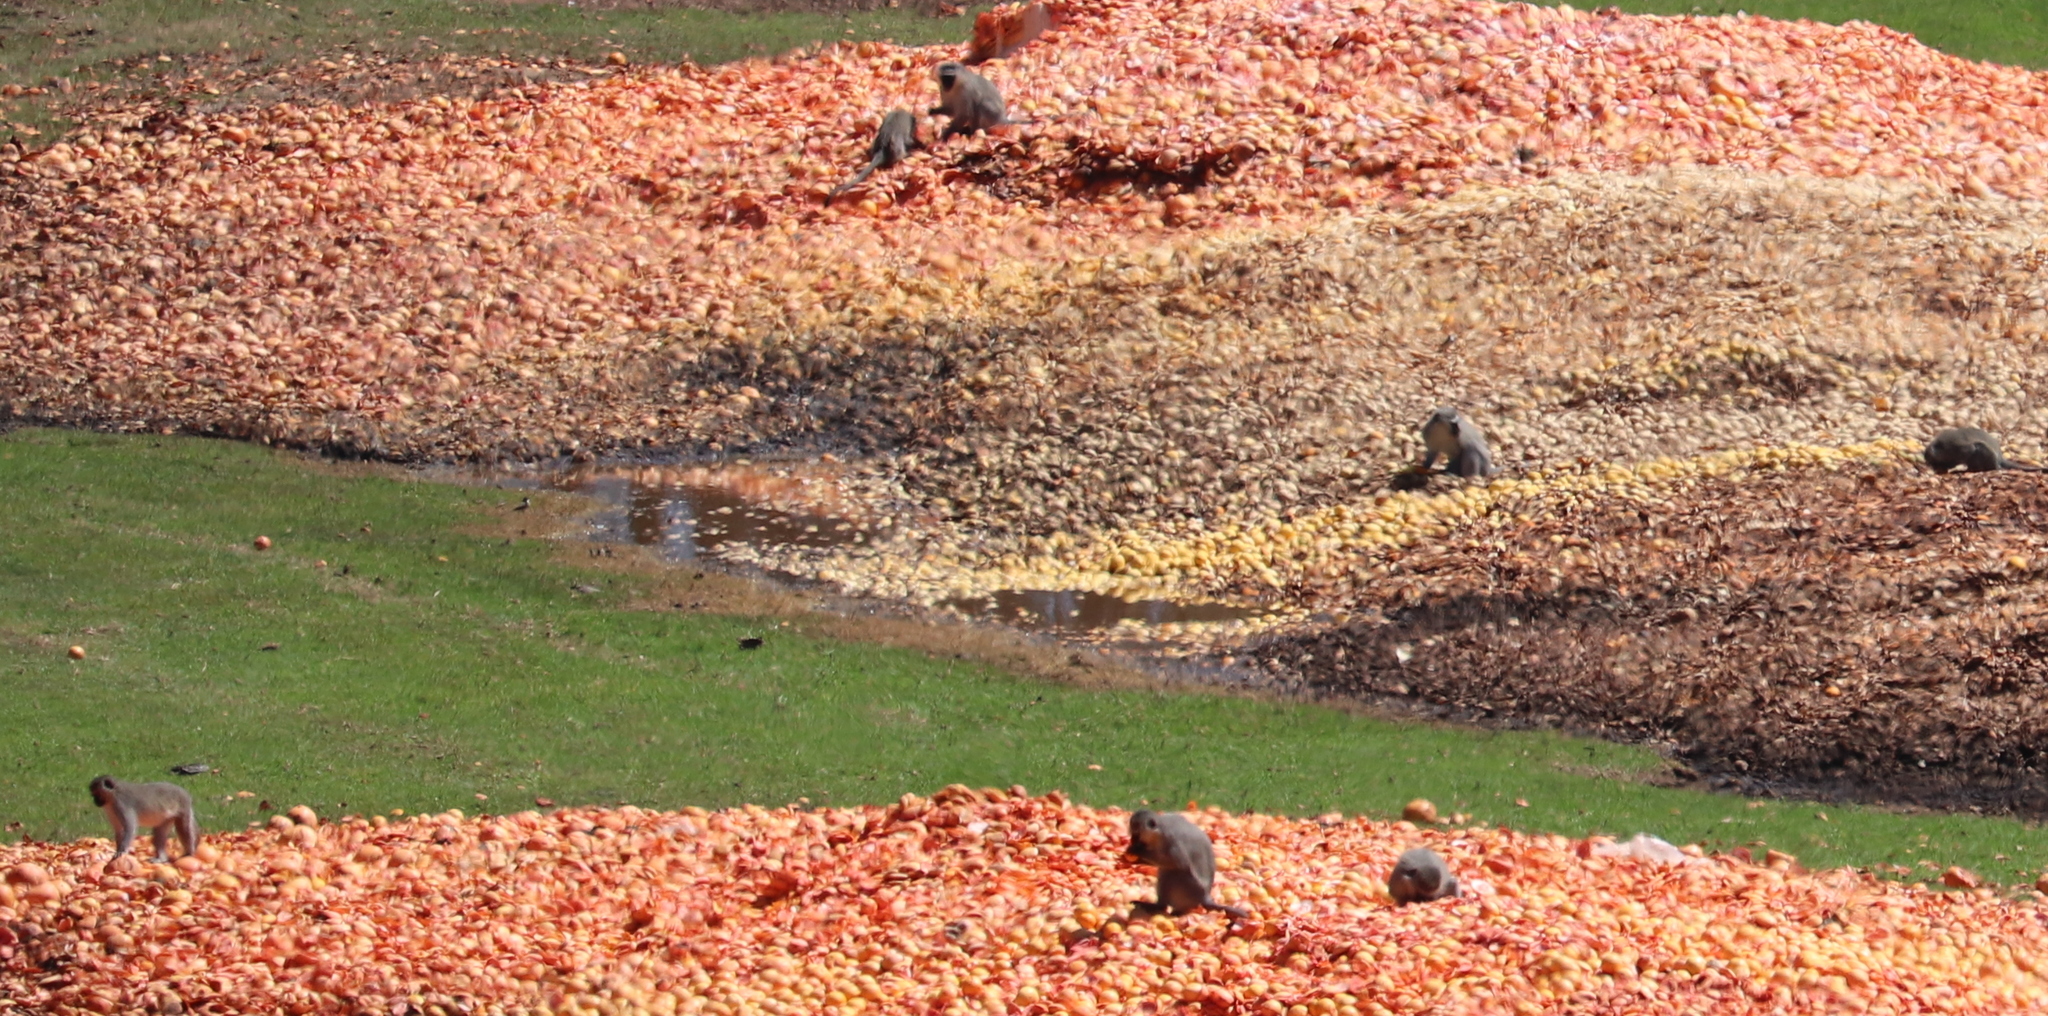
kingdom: Animalia
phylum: Chordata
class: Mammalia
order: Primates
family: Cercopithecidae
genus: Chlorocebus
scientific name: Chlorocebus pygerythrus
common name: Vervet monkey
